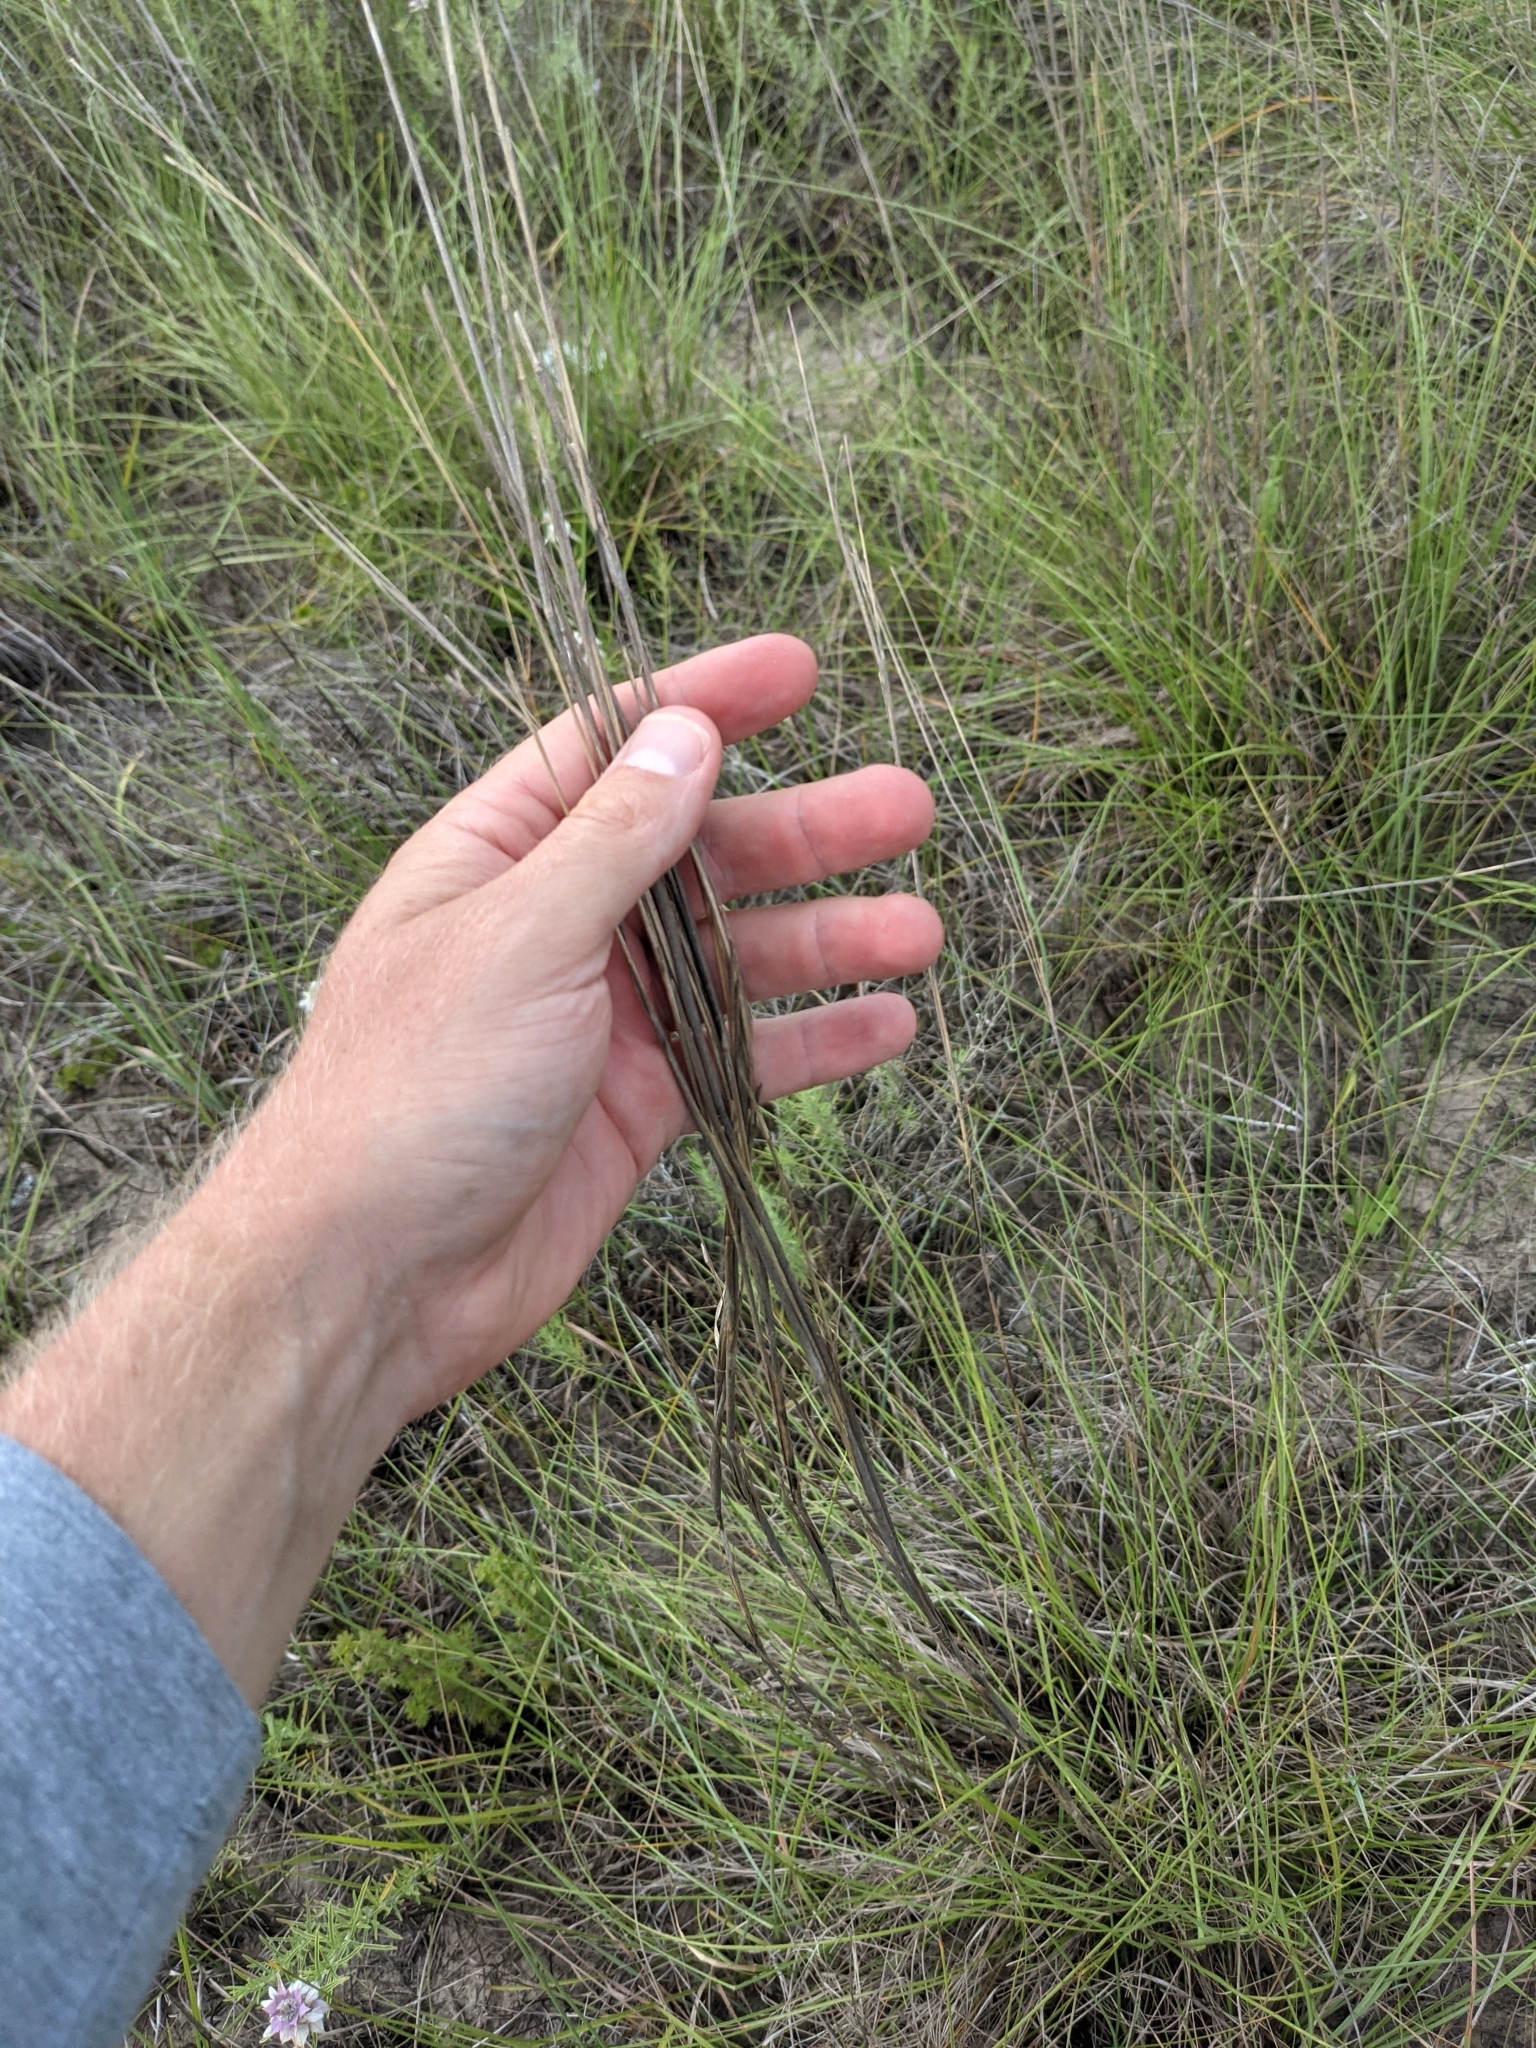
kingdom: Plantae
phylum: Tracheophyta
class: Liliopsida
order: Poales
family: Poaceae
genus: Schizachyrium
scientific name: Schizachyrium scoparium
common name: Little bluestem
